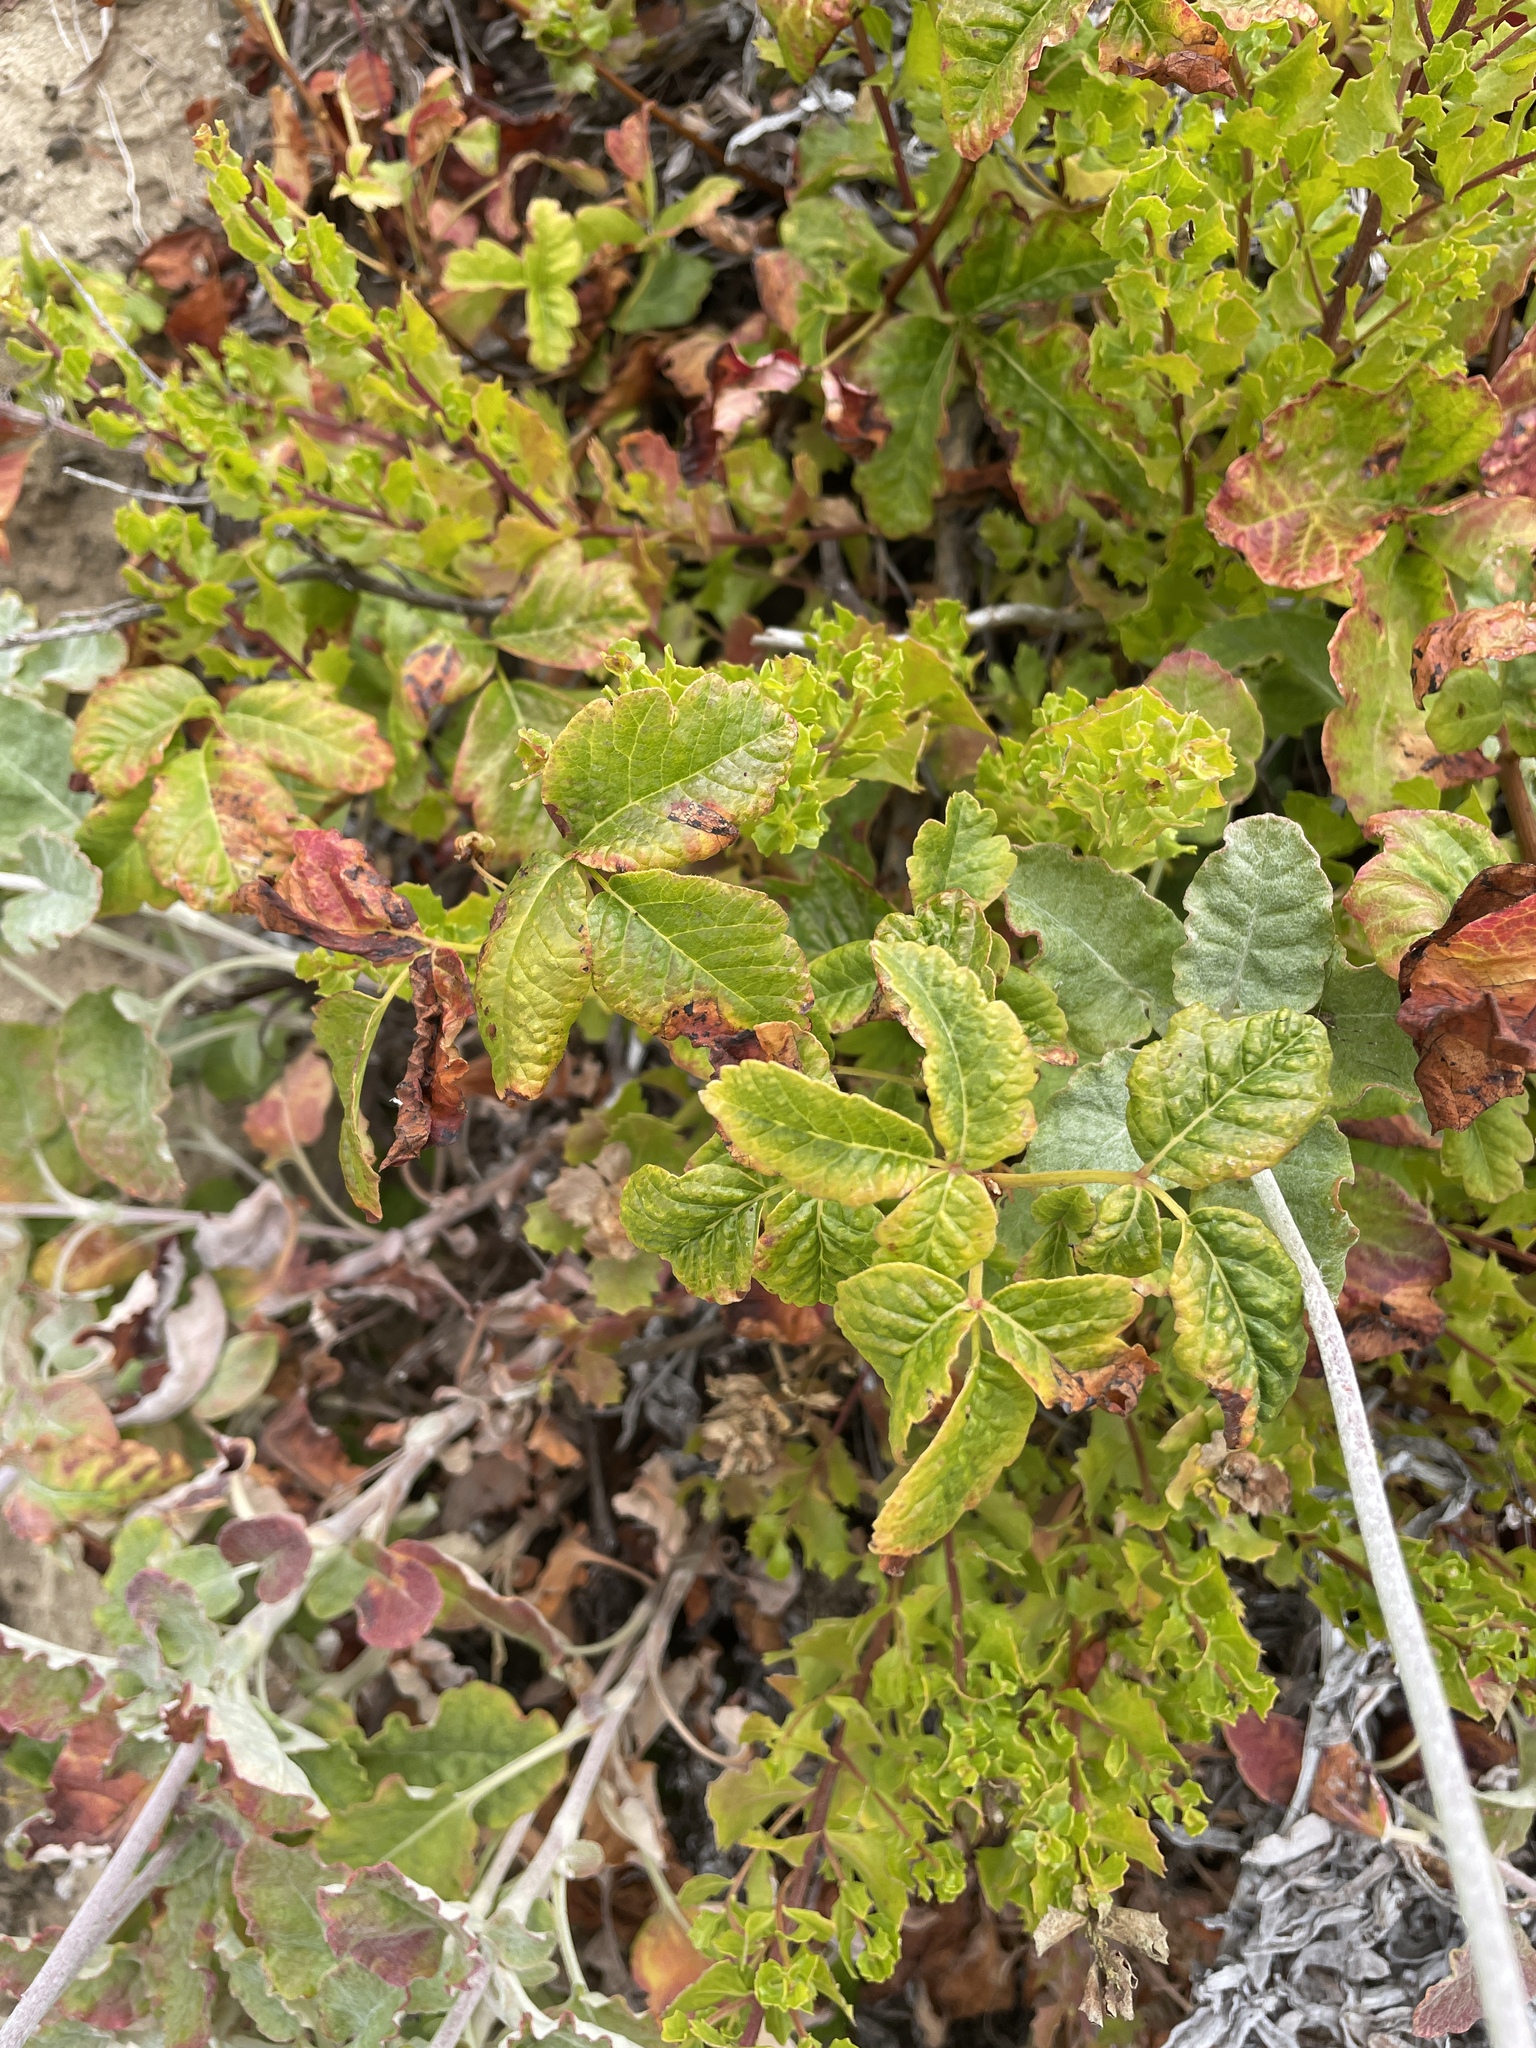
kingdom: Plantae
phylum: Tracheophyta
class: Magnoliopsida
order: Sapindales
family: Anacardiaceae
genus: Toxicodendron
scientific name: Toxicodendron diversilobum
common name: Pacific poison-oak
